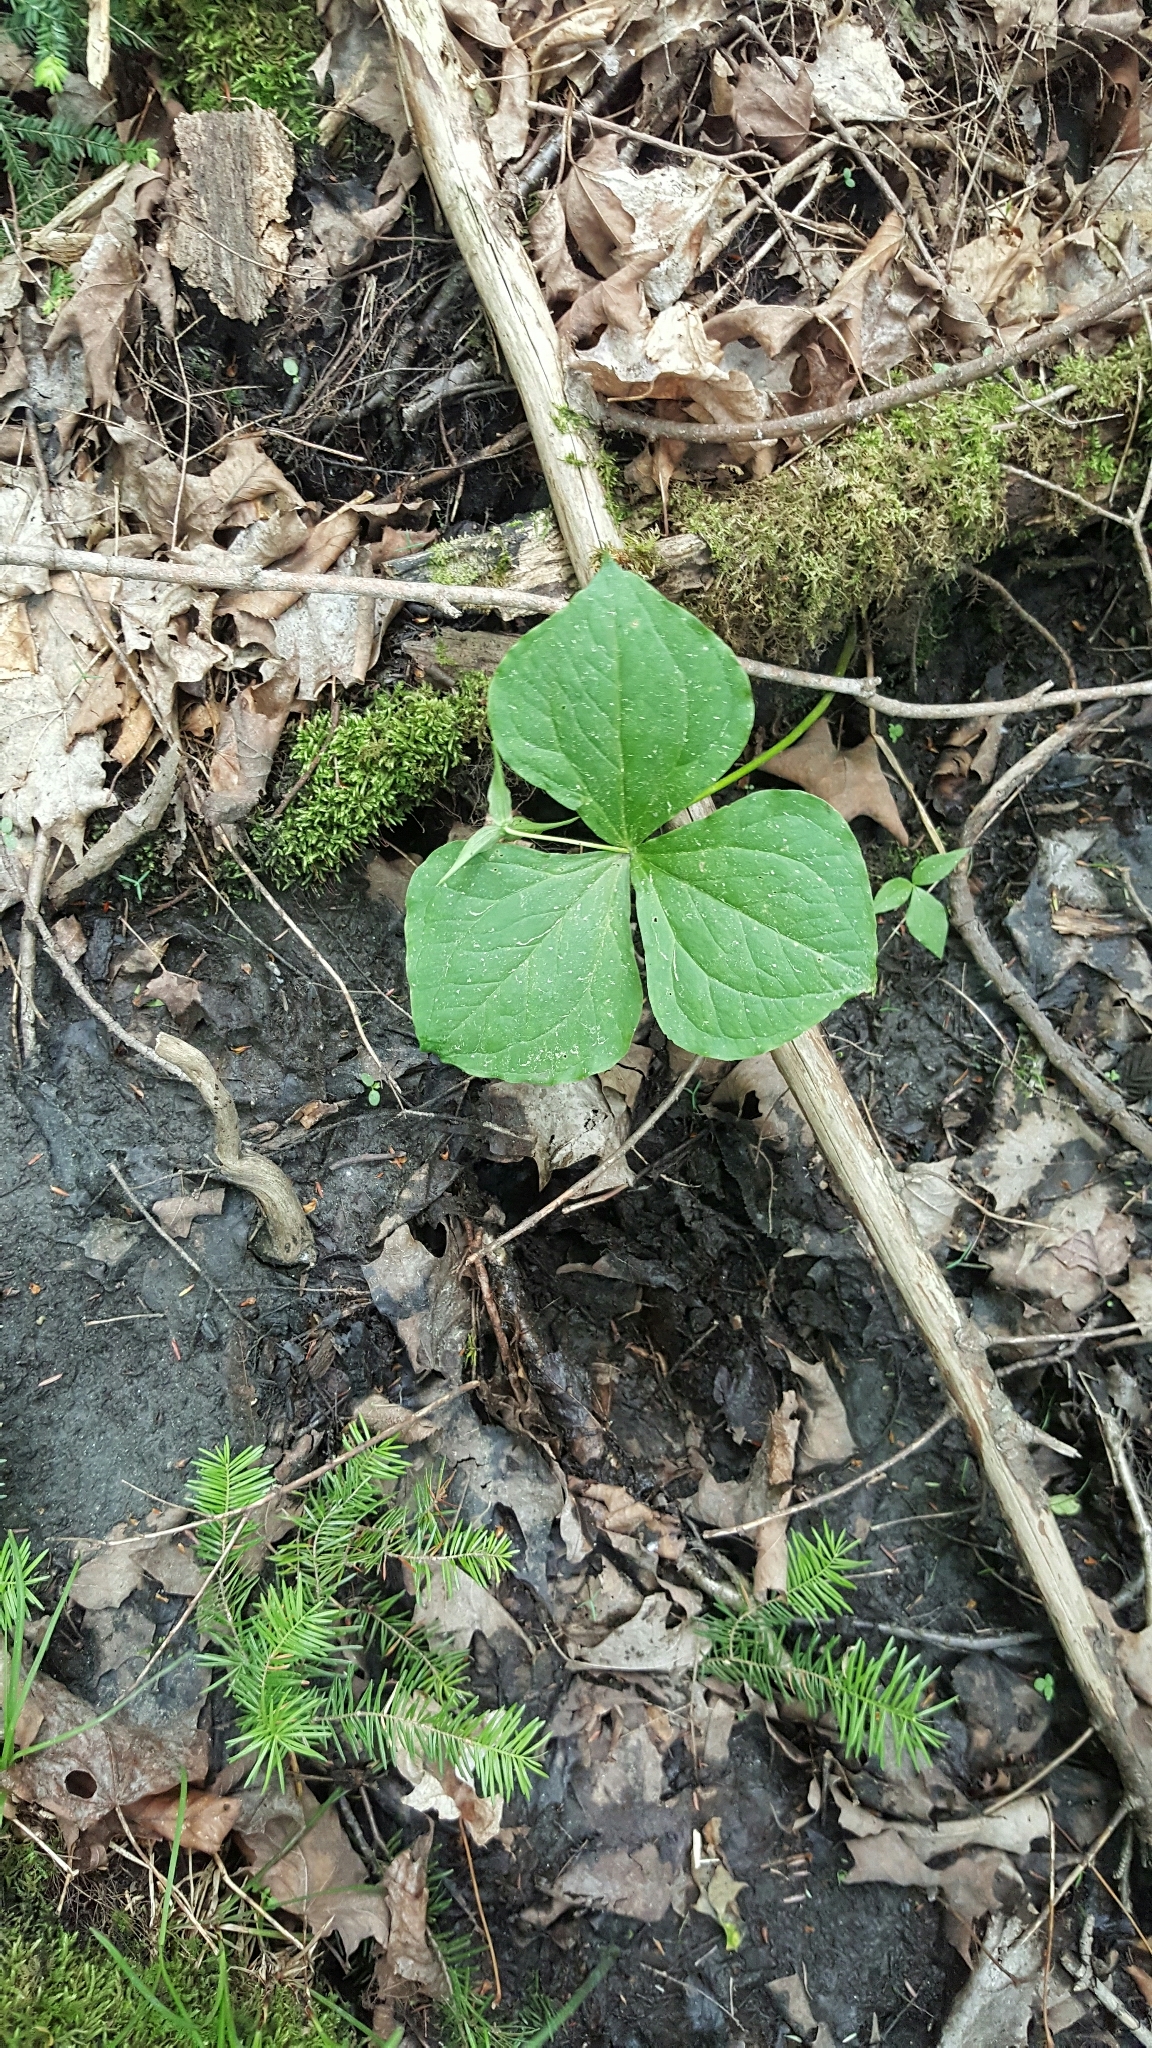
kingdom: Plantae
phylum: Tracheophyta
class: Liliopsida
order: Liliales
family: Melanthiaceae
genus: Trillium
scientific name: Trillium erectum
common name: Purple trillium
